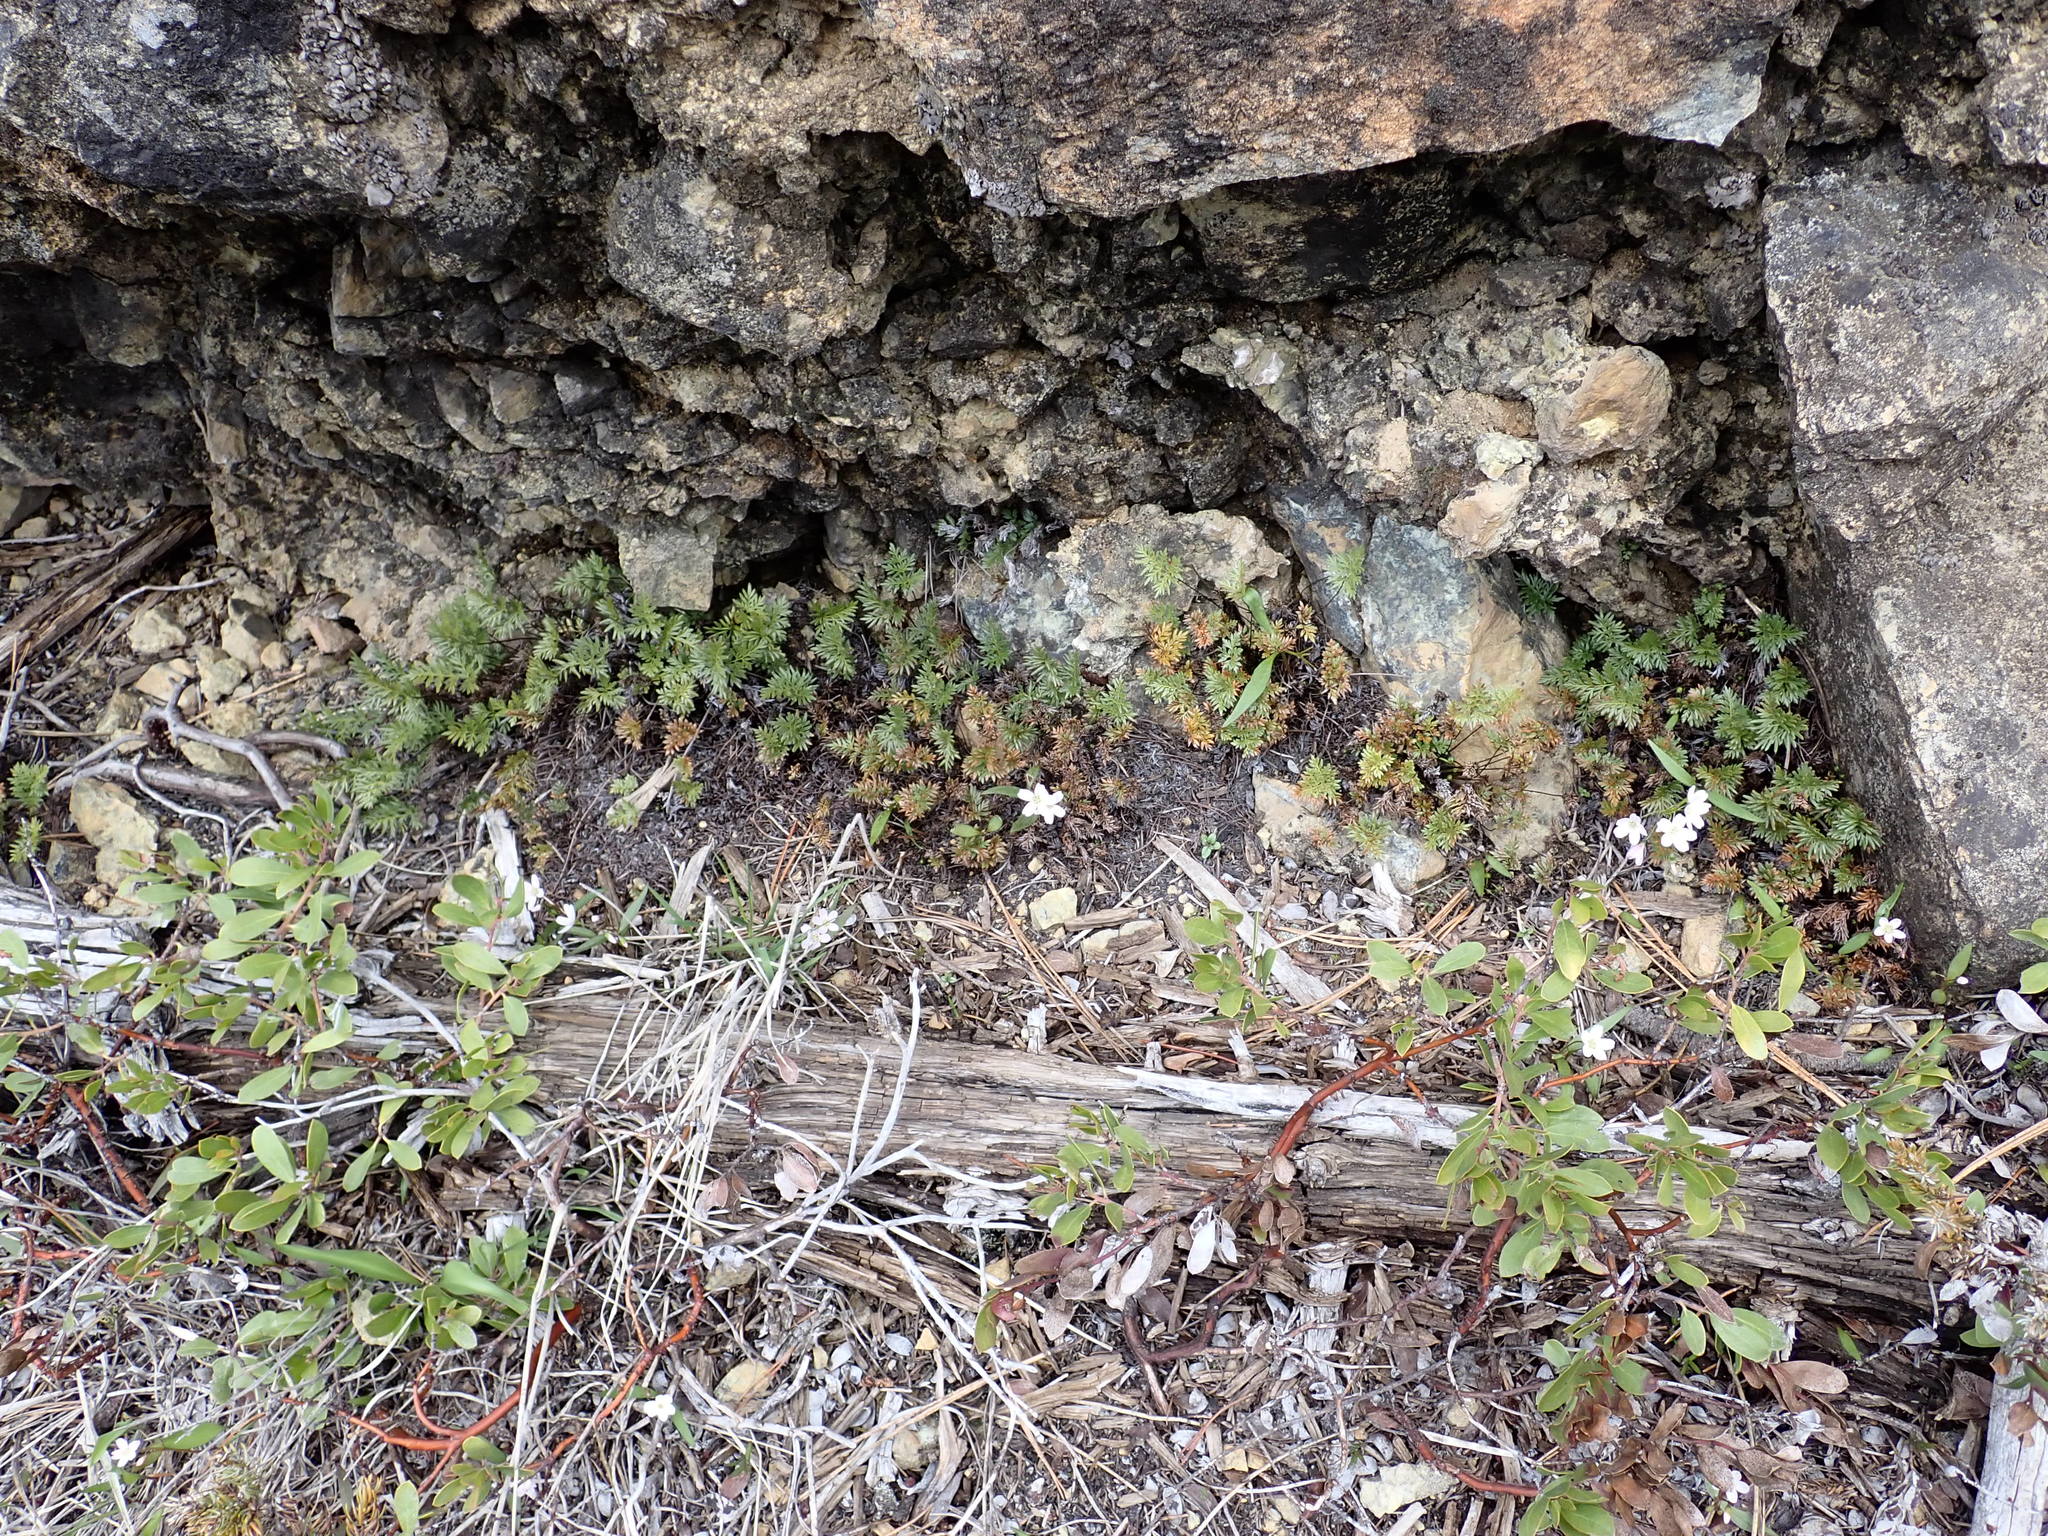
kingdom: Plantae
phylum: Tracheophyta
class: Polypodiopsida
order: Polypodiales
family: Pteridaceae
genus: Aspidotis
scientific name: Aspidotis densa
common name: Indian's dream
